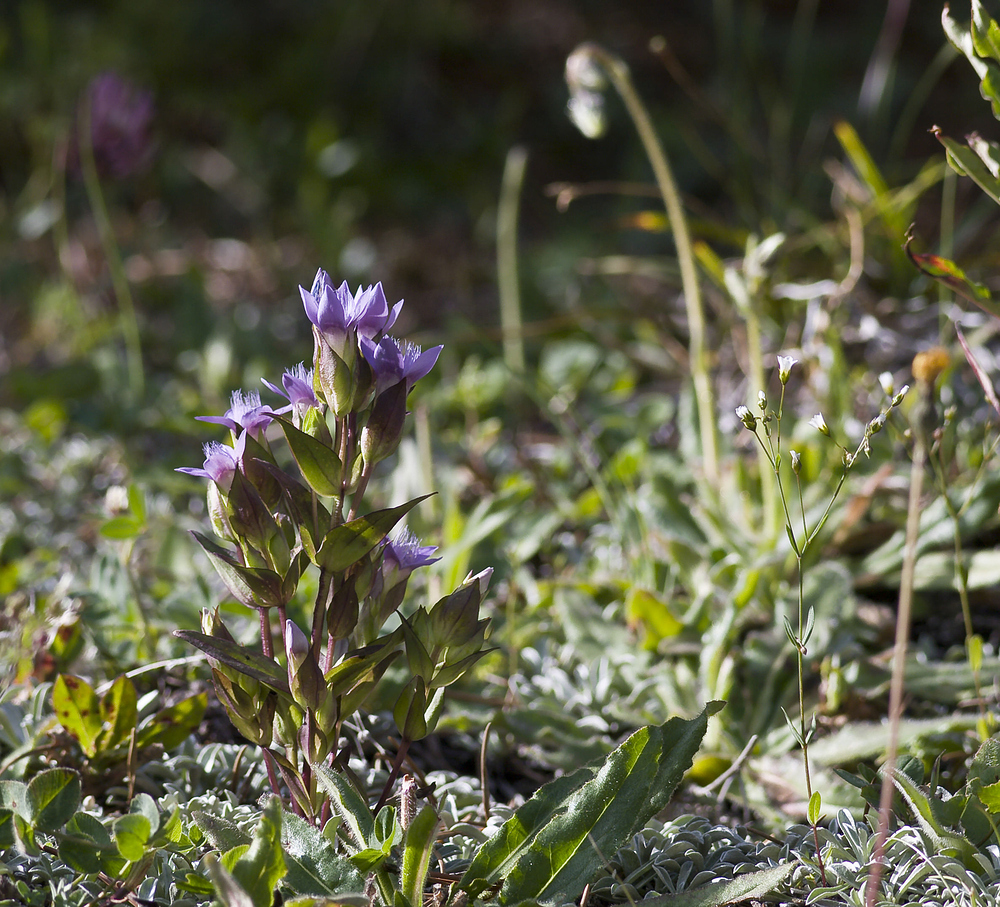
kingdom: Plantae
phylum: Tracheophyta
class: Magnoliopsida
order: Gentianales
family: Gentianaceae
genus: Gentianella
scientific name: Gentianella ramosa
